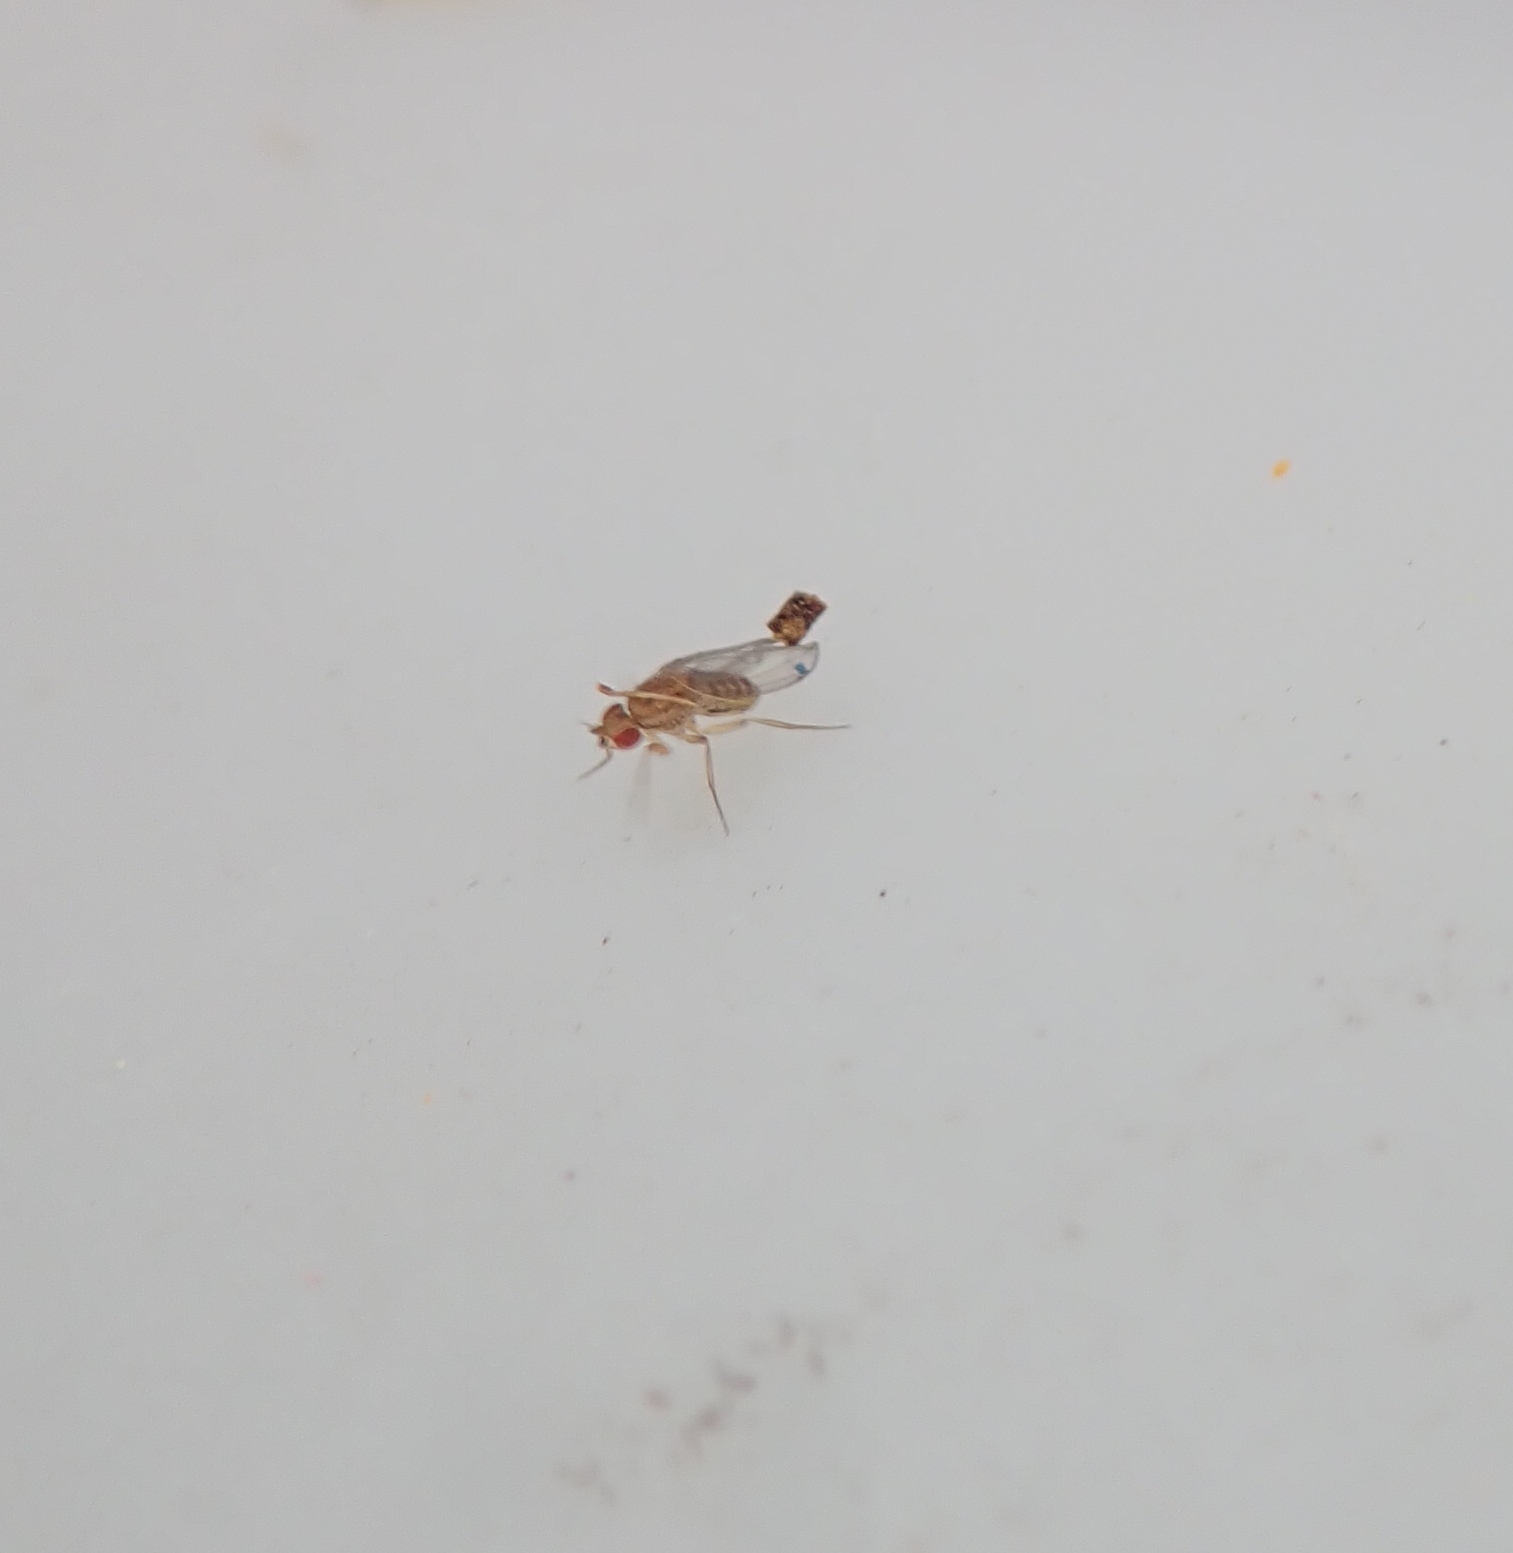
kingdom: Animalia
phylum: Arthropoda
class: Insecta
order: Diptera
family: Drosophilidae
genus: Drosophila
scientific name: Drosophila busckii
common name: Pomace fly
